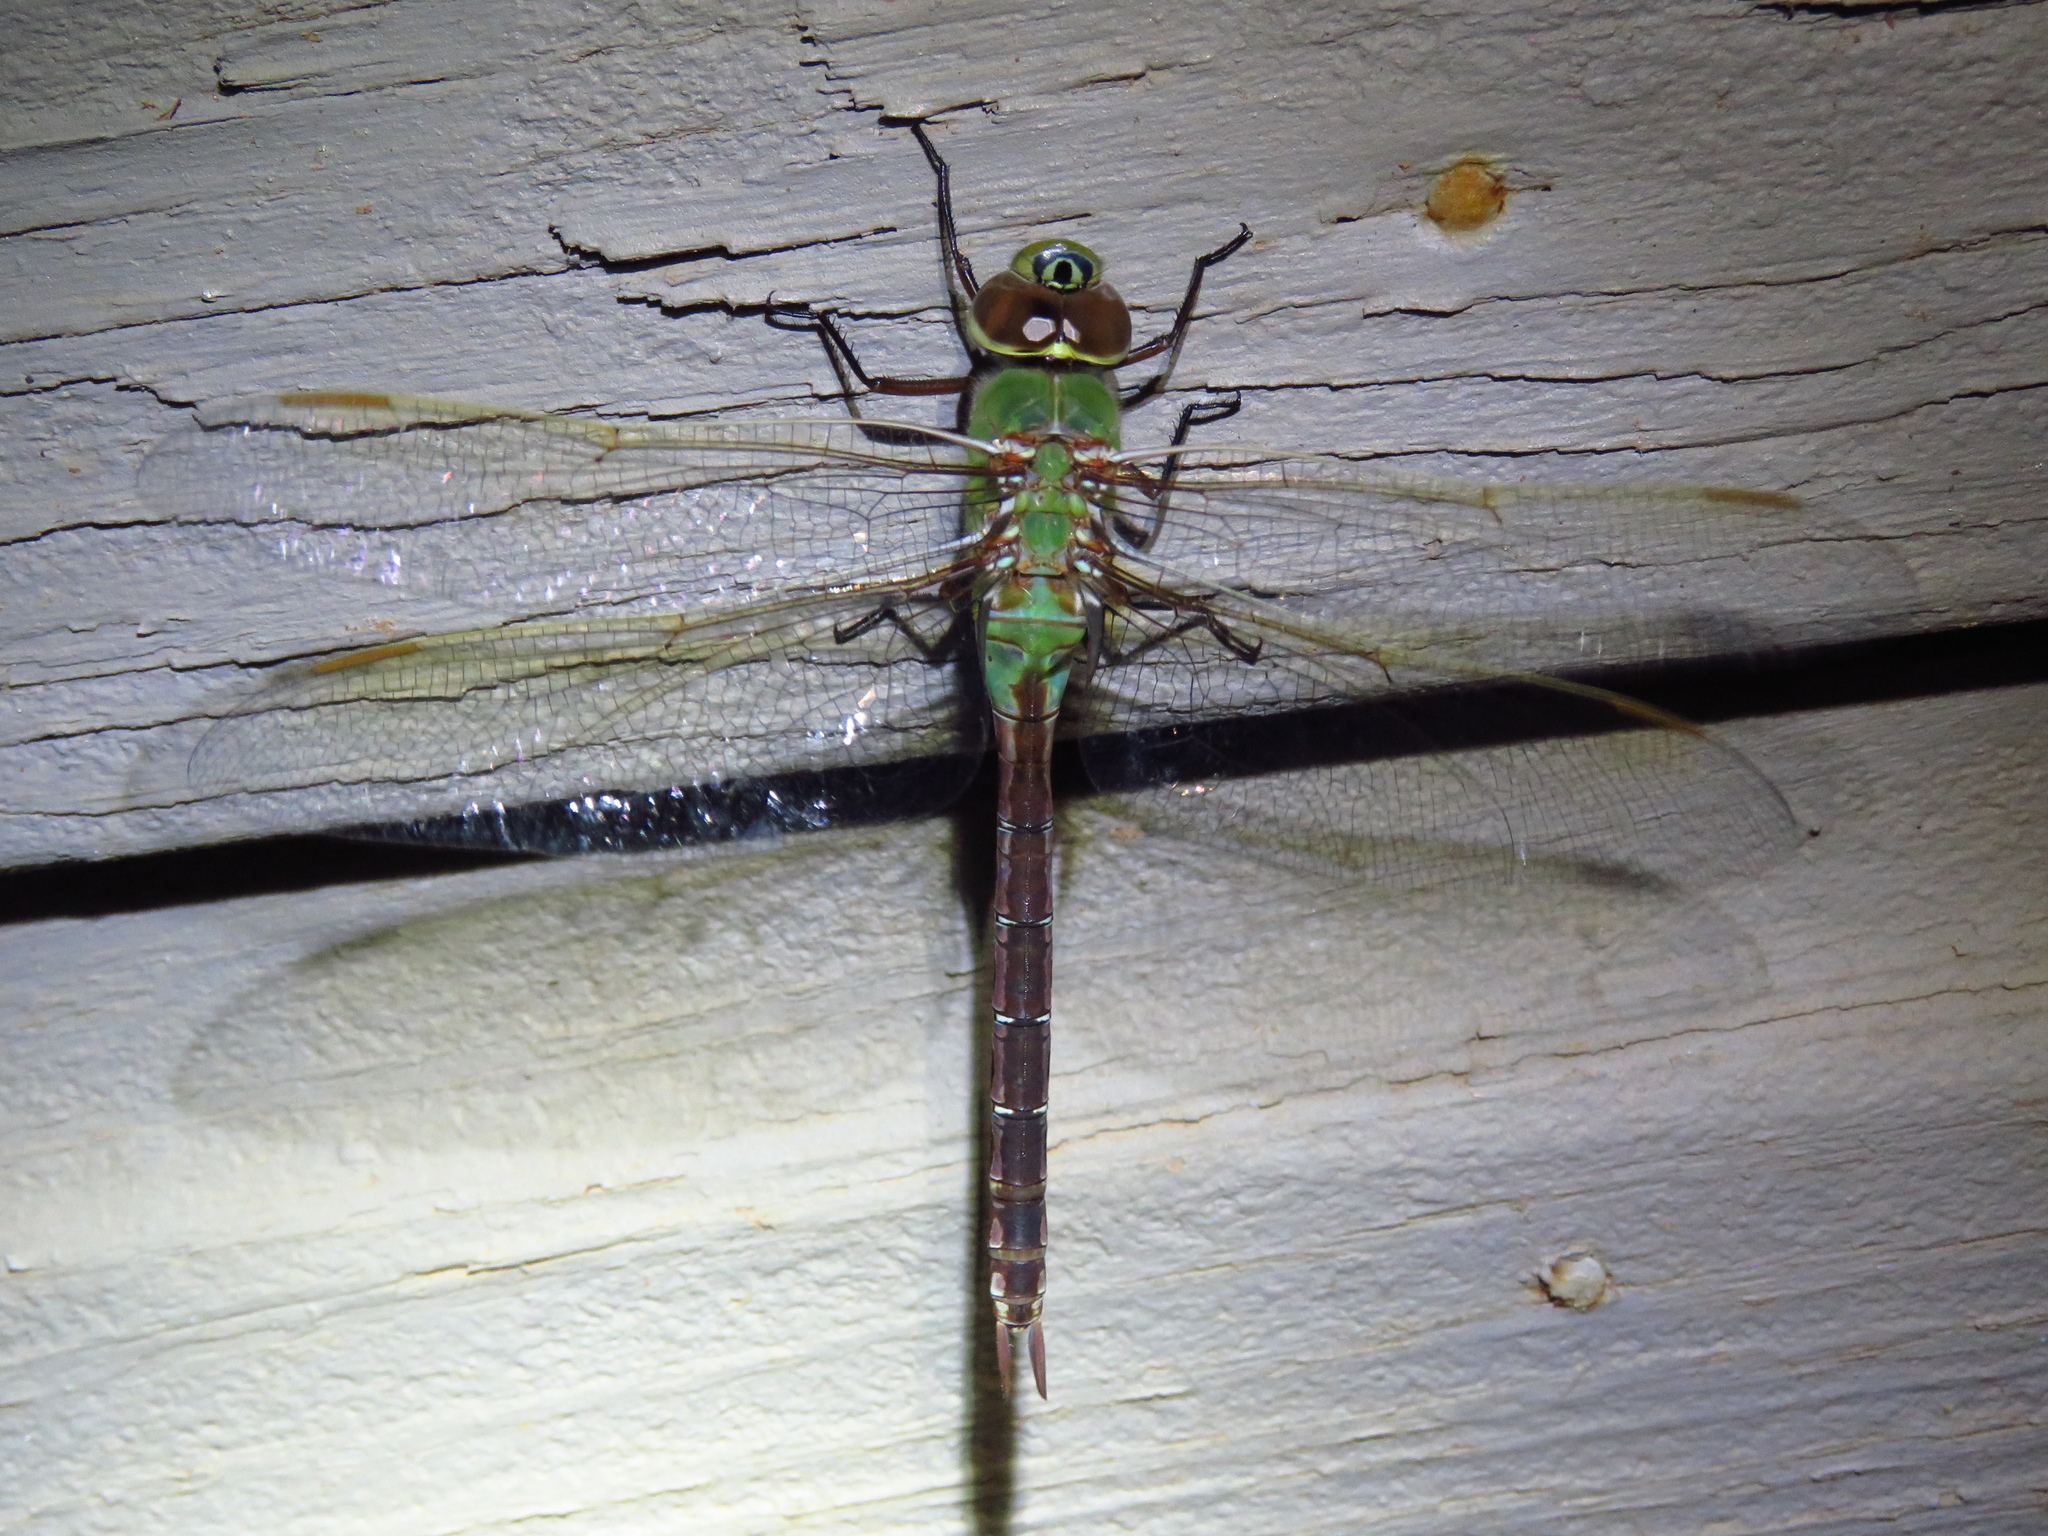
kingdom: Animalia
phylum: Arthropoda
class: Insecta
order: Odonata
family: Aeshnidae
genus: Anax
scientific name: Anax junius
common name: Common green darner
